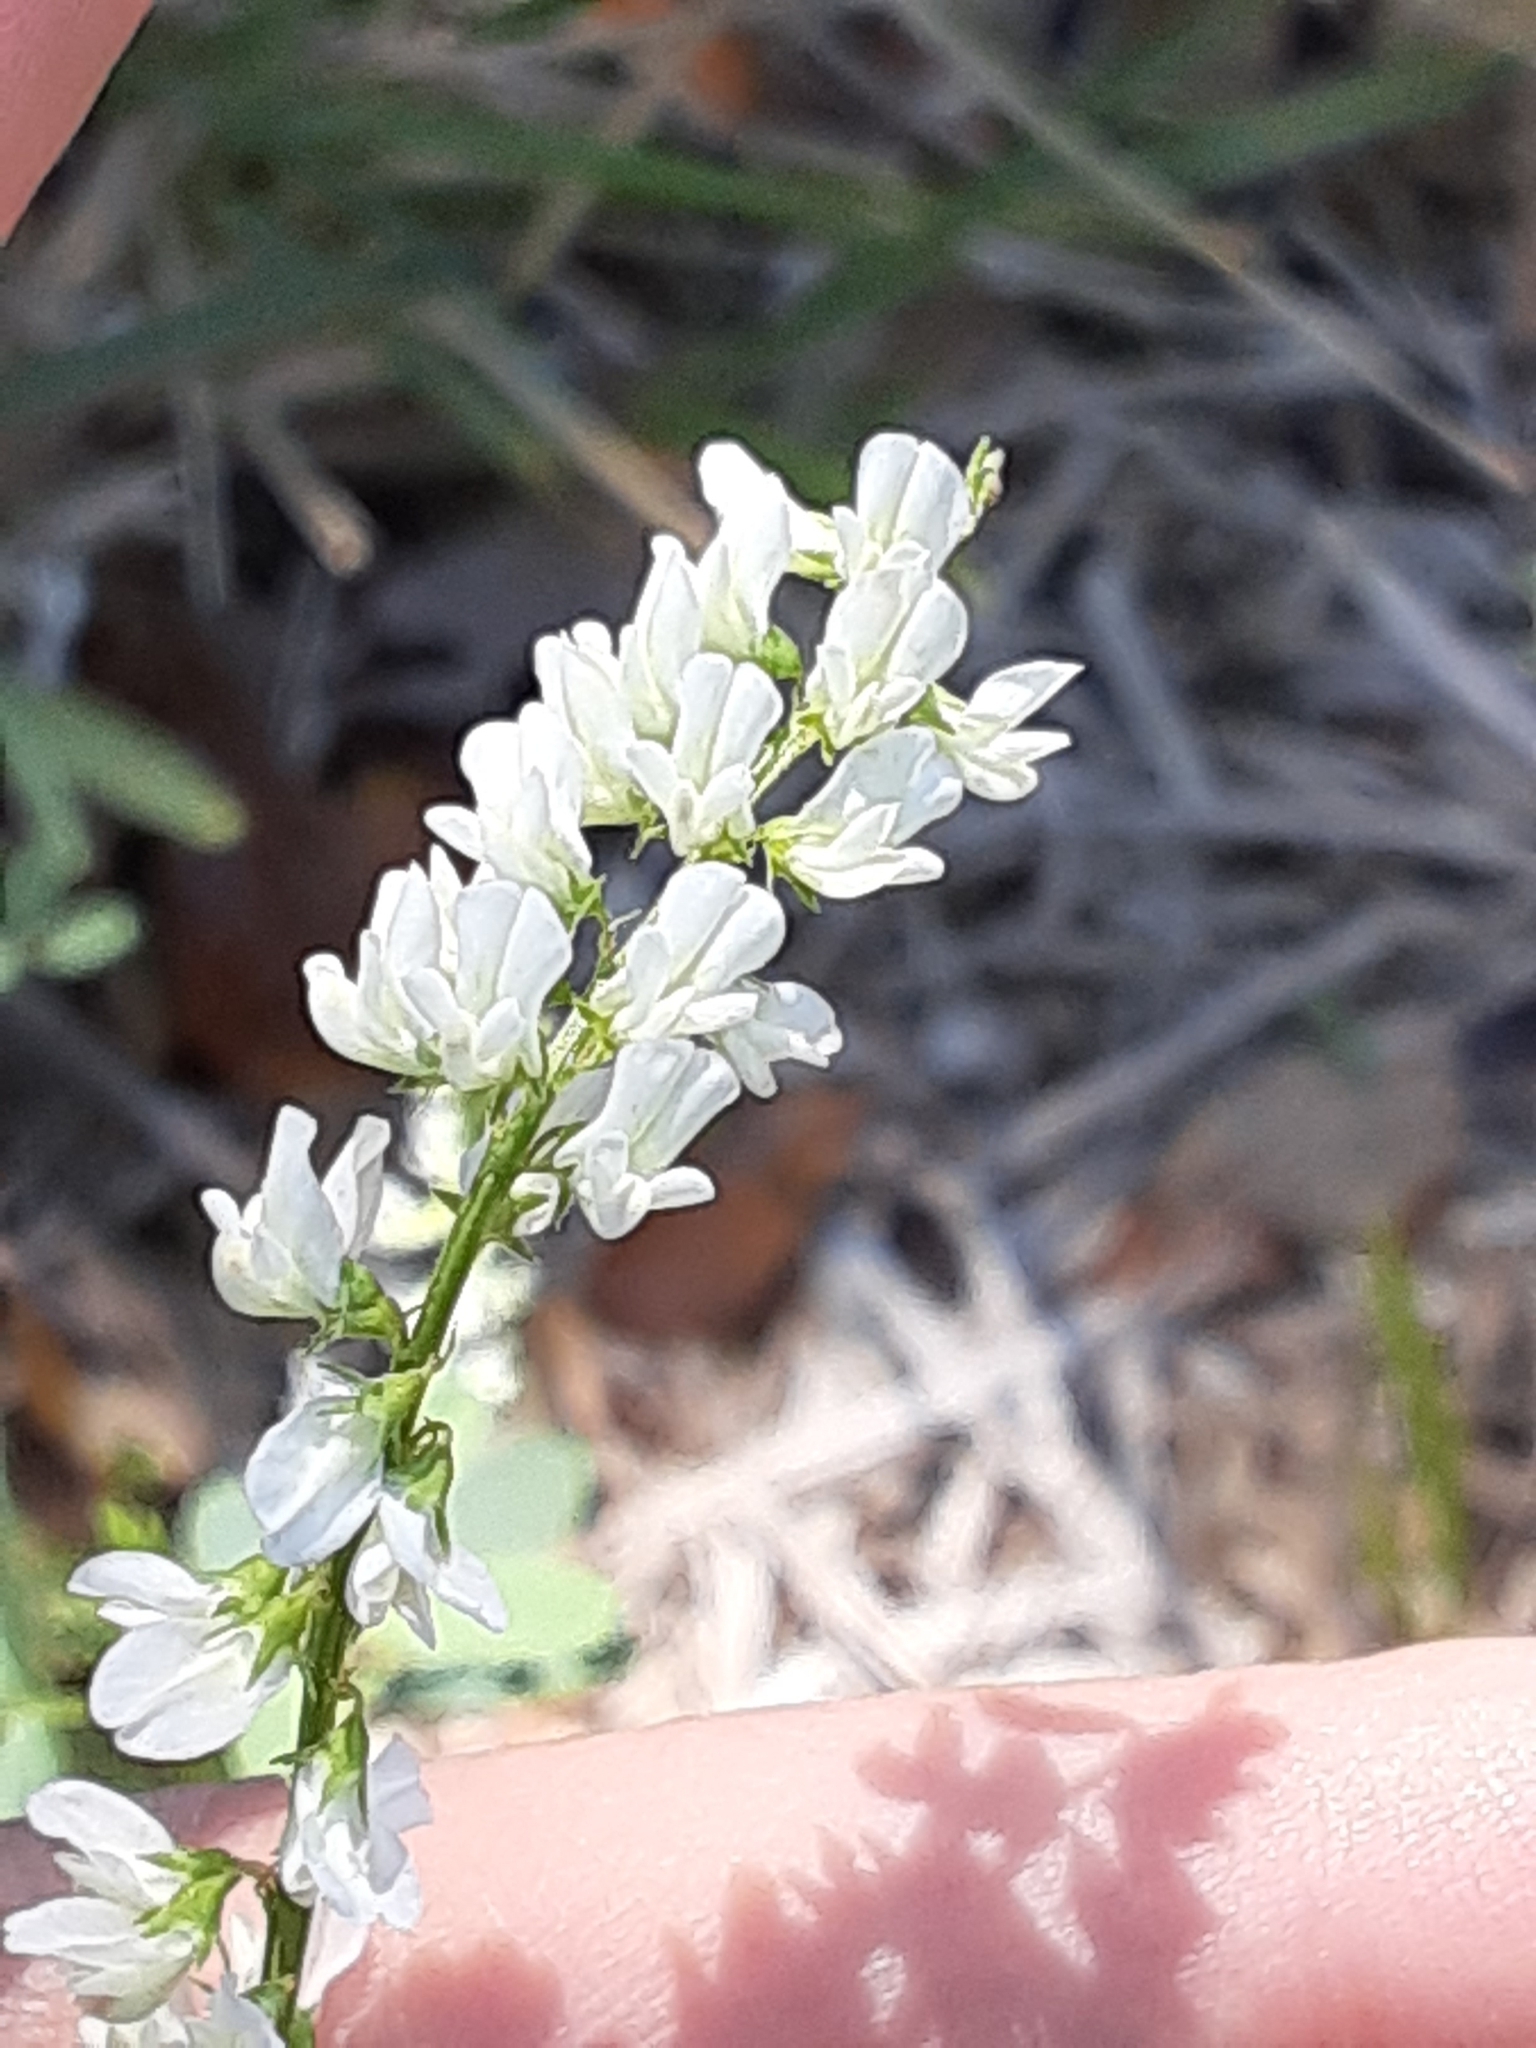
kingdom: Plantae
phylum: Tracheophyta
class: Magnoliopsida
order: Fabales
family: Fabaceae
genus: Melilotus
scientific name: Melilotus albus
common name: White melilot
